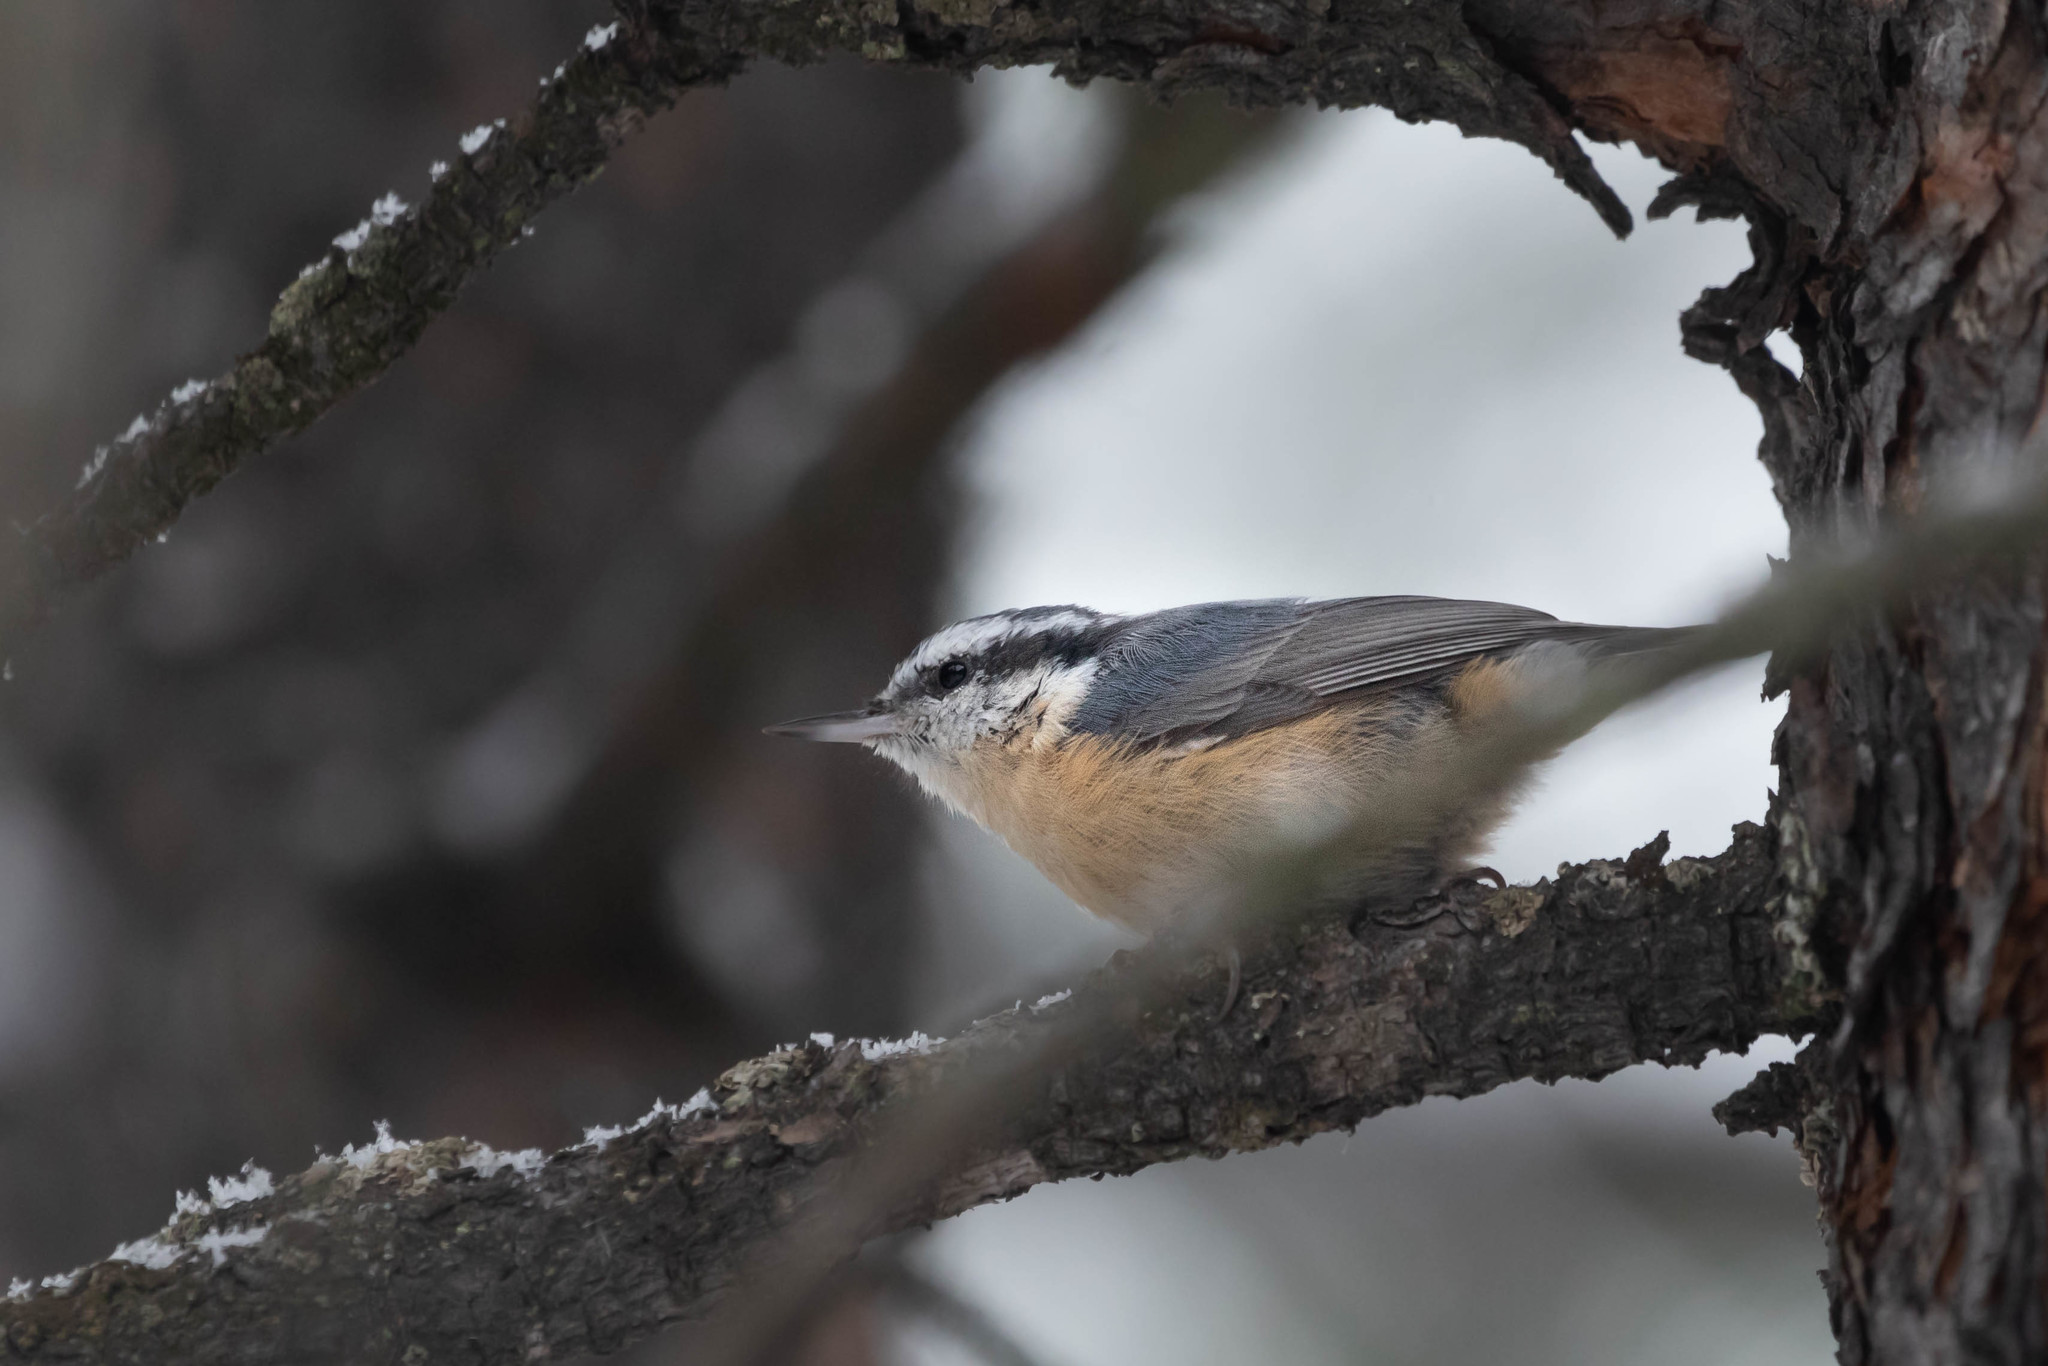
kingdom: Animalia
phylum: Chordata
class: Aves
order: Passeriformes
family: Sittidae
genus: Sitta
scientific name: Sitta canadensis
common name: Red-breasted nuthatch
